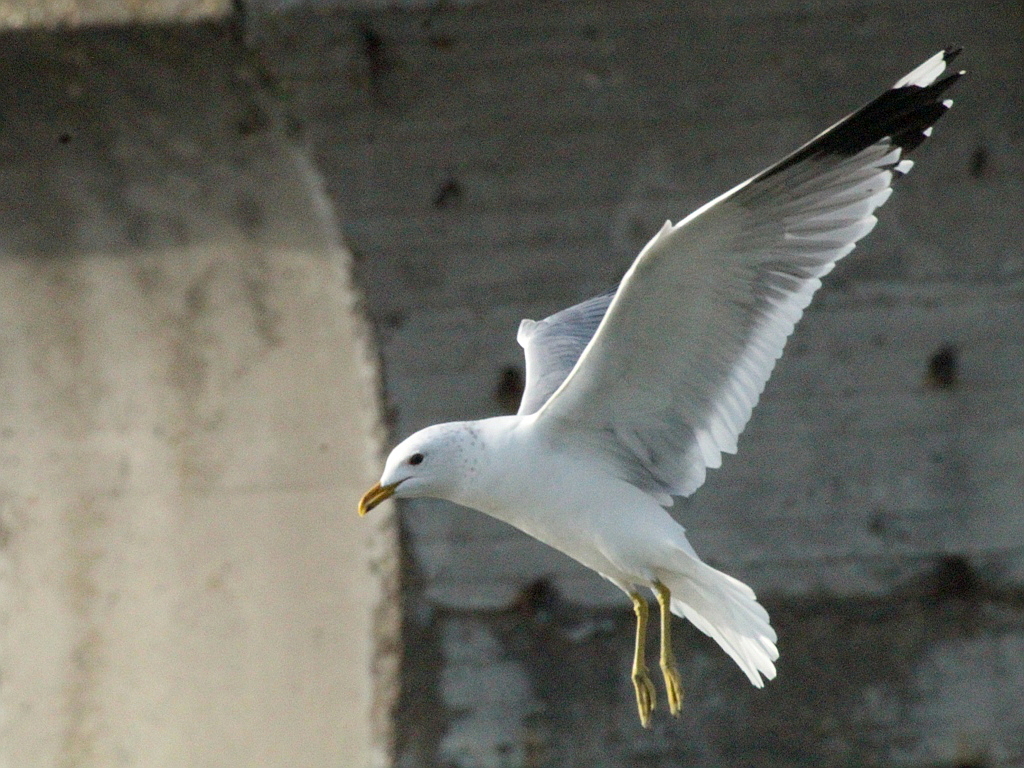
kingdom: Animalia
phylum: Chordata
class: Aves
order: Charadriiformes
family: Laridae
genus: Larus
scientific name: Larus canus
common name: Mew gull
